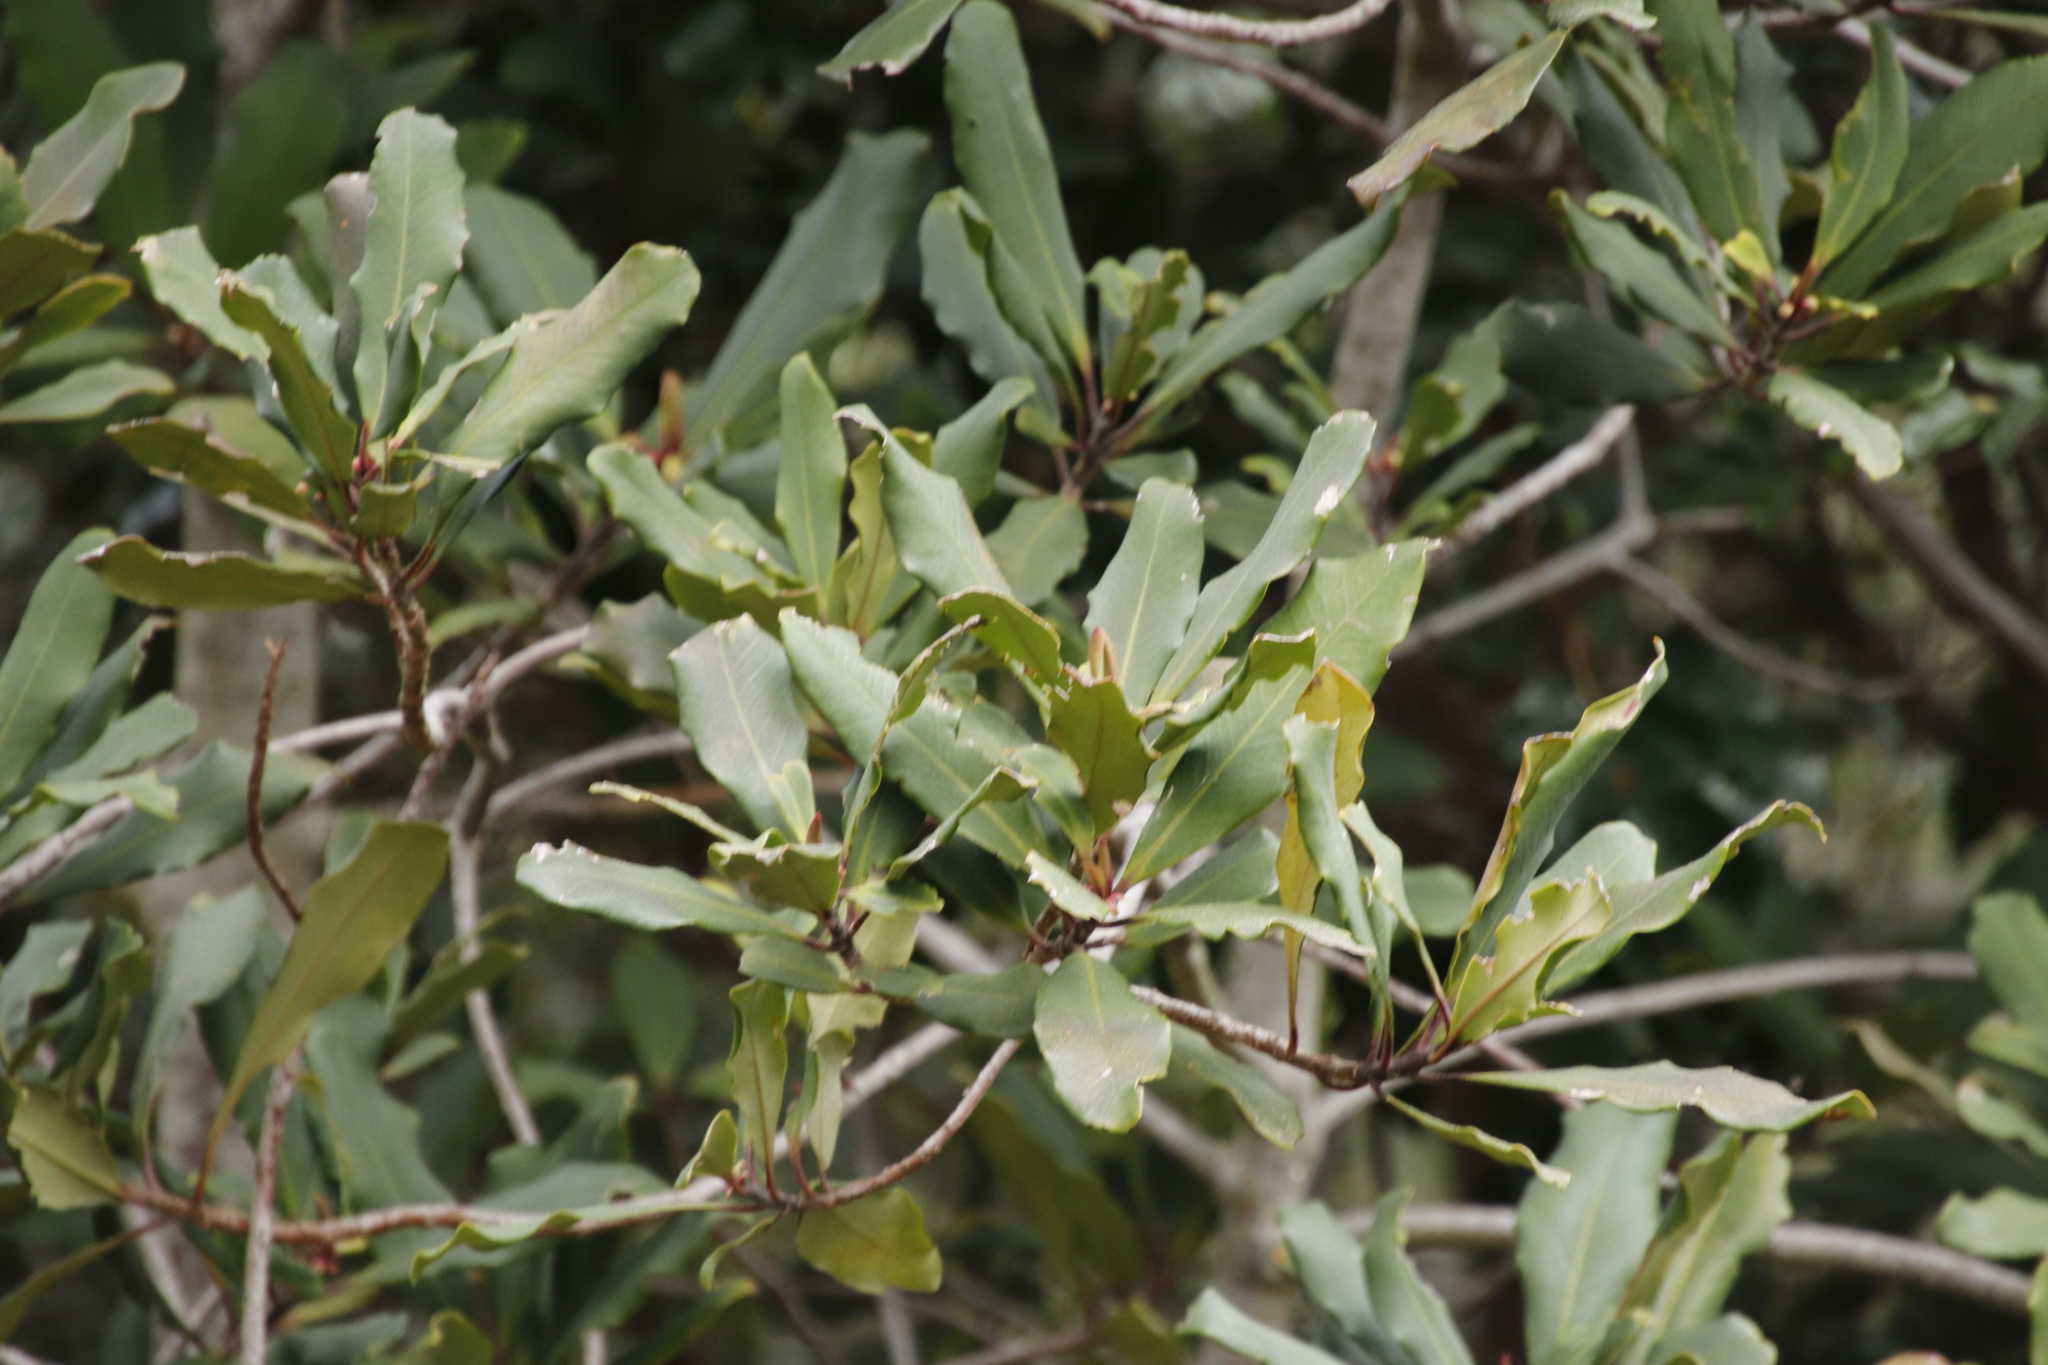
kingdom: Plantae
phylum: Tracheophyta
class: Magnoliopsida
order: Ericales
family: Primulaceae
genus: Myrsine
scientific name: Myrsine melanophloeos
